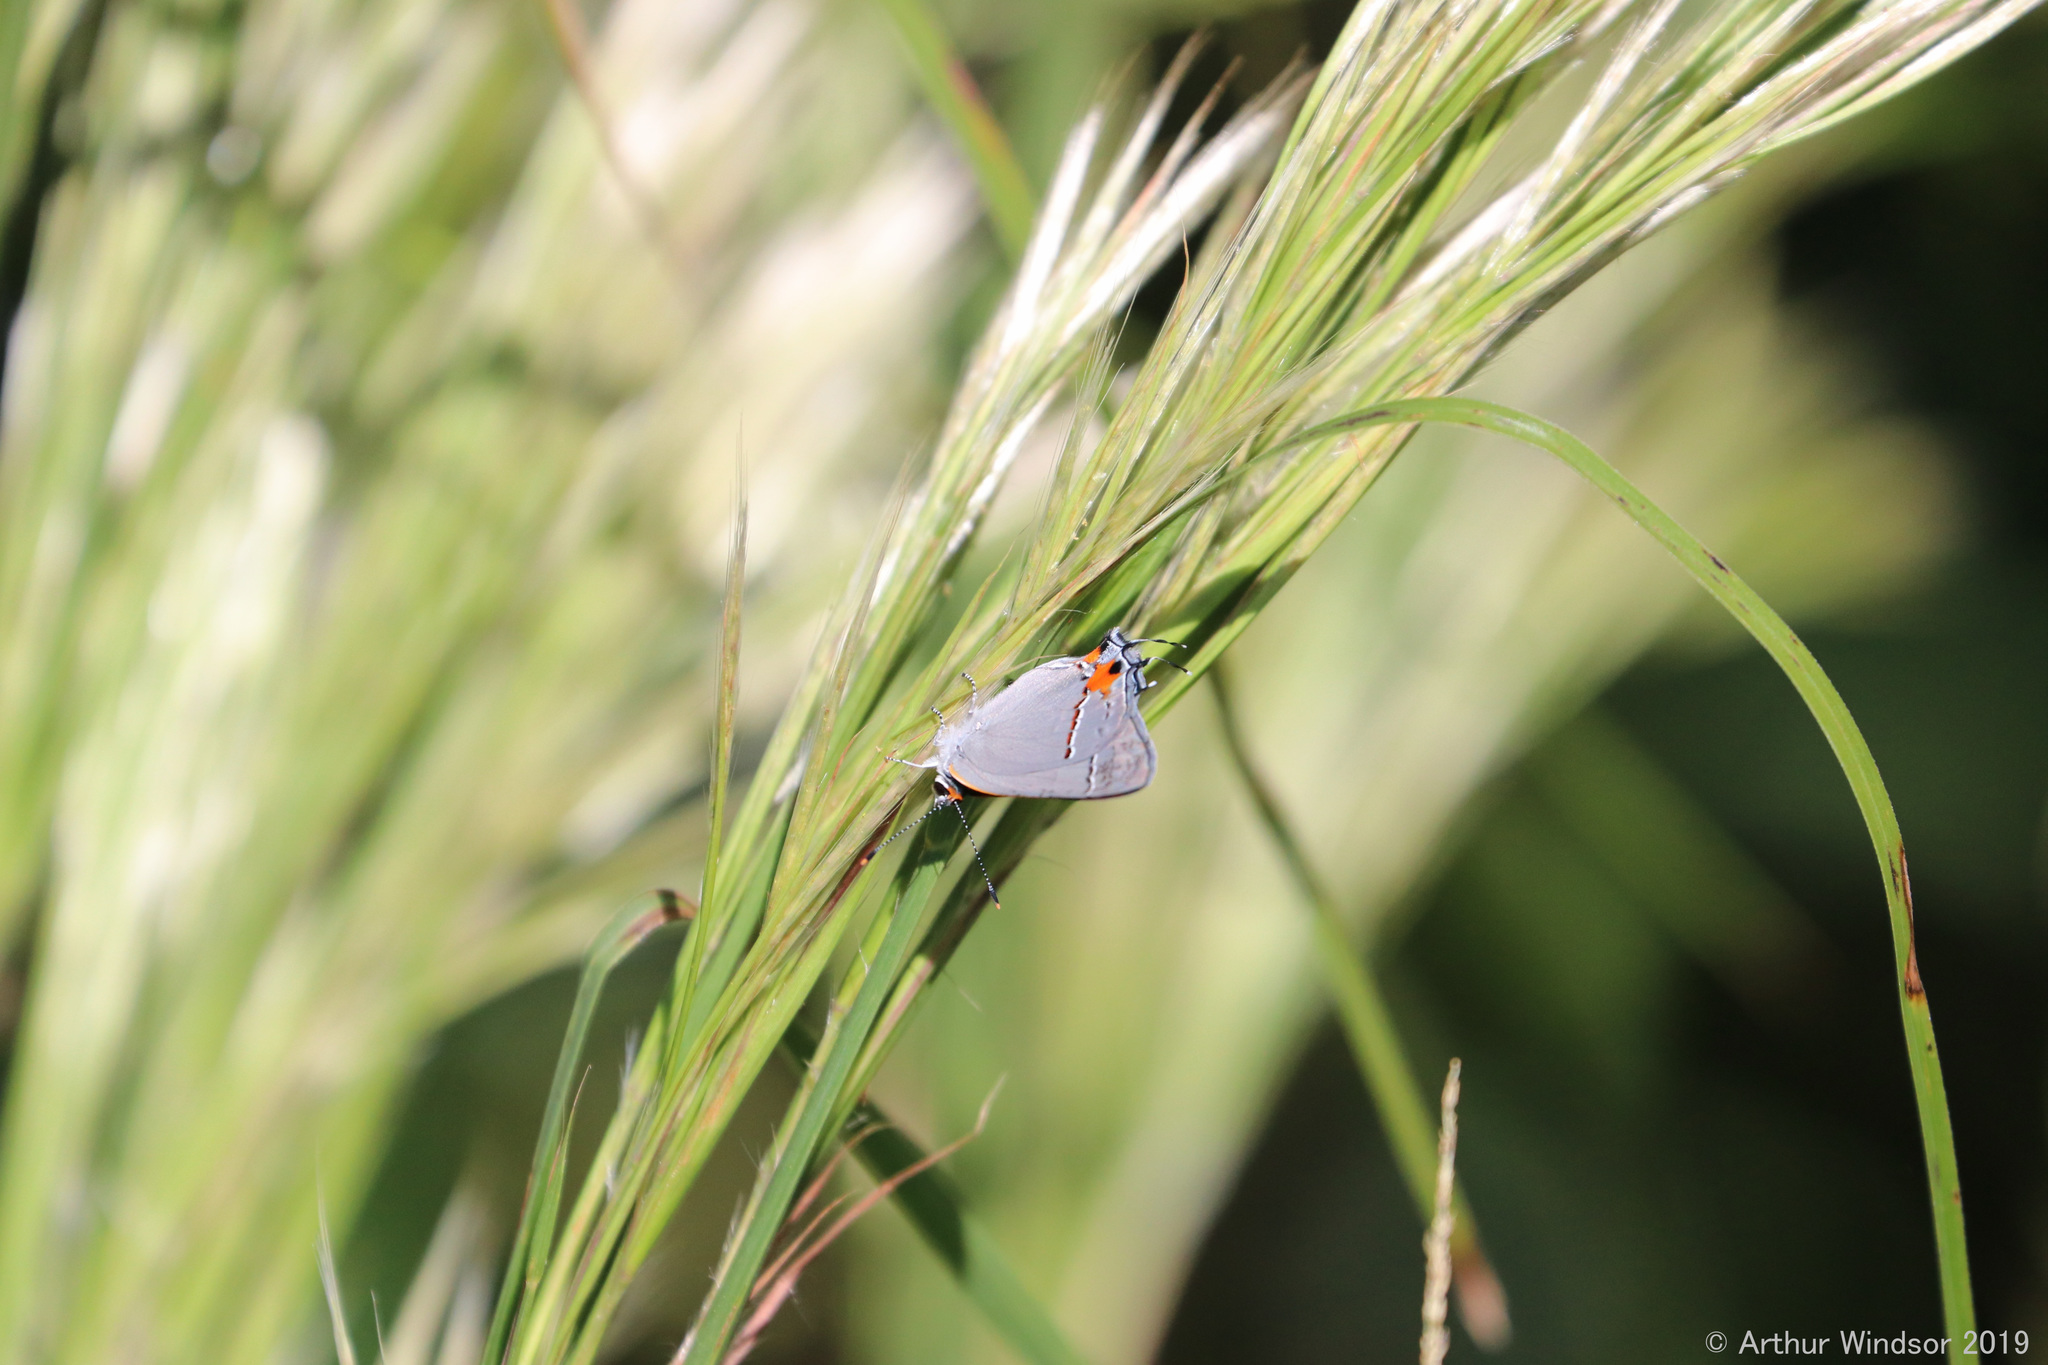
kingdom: Animalia
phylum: Arthropoda
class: Insecta
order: Lepidoptera
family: Lycaenidae
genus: Strymon
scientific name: Strymon melinus
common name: Gray hairstreak
